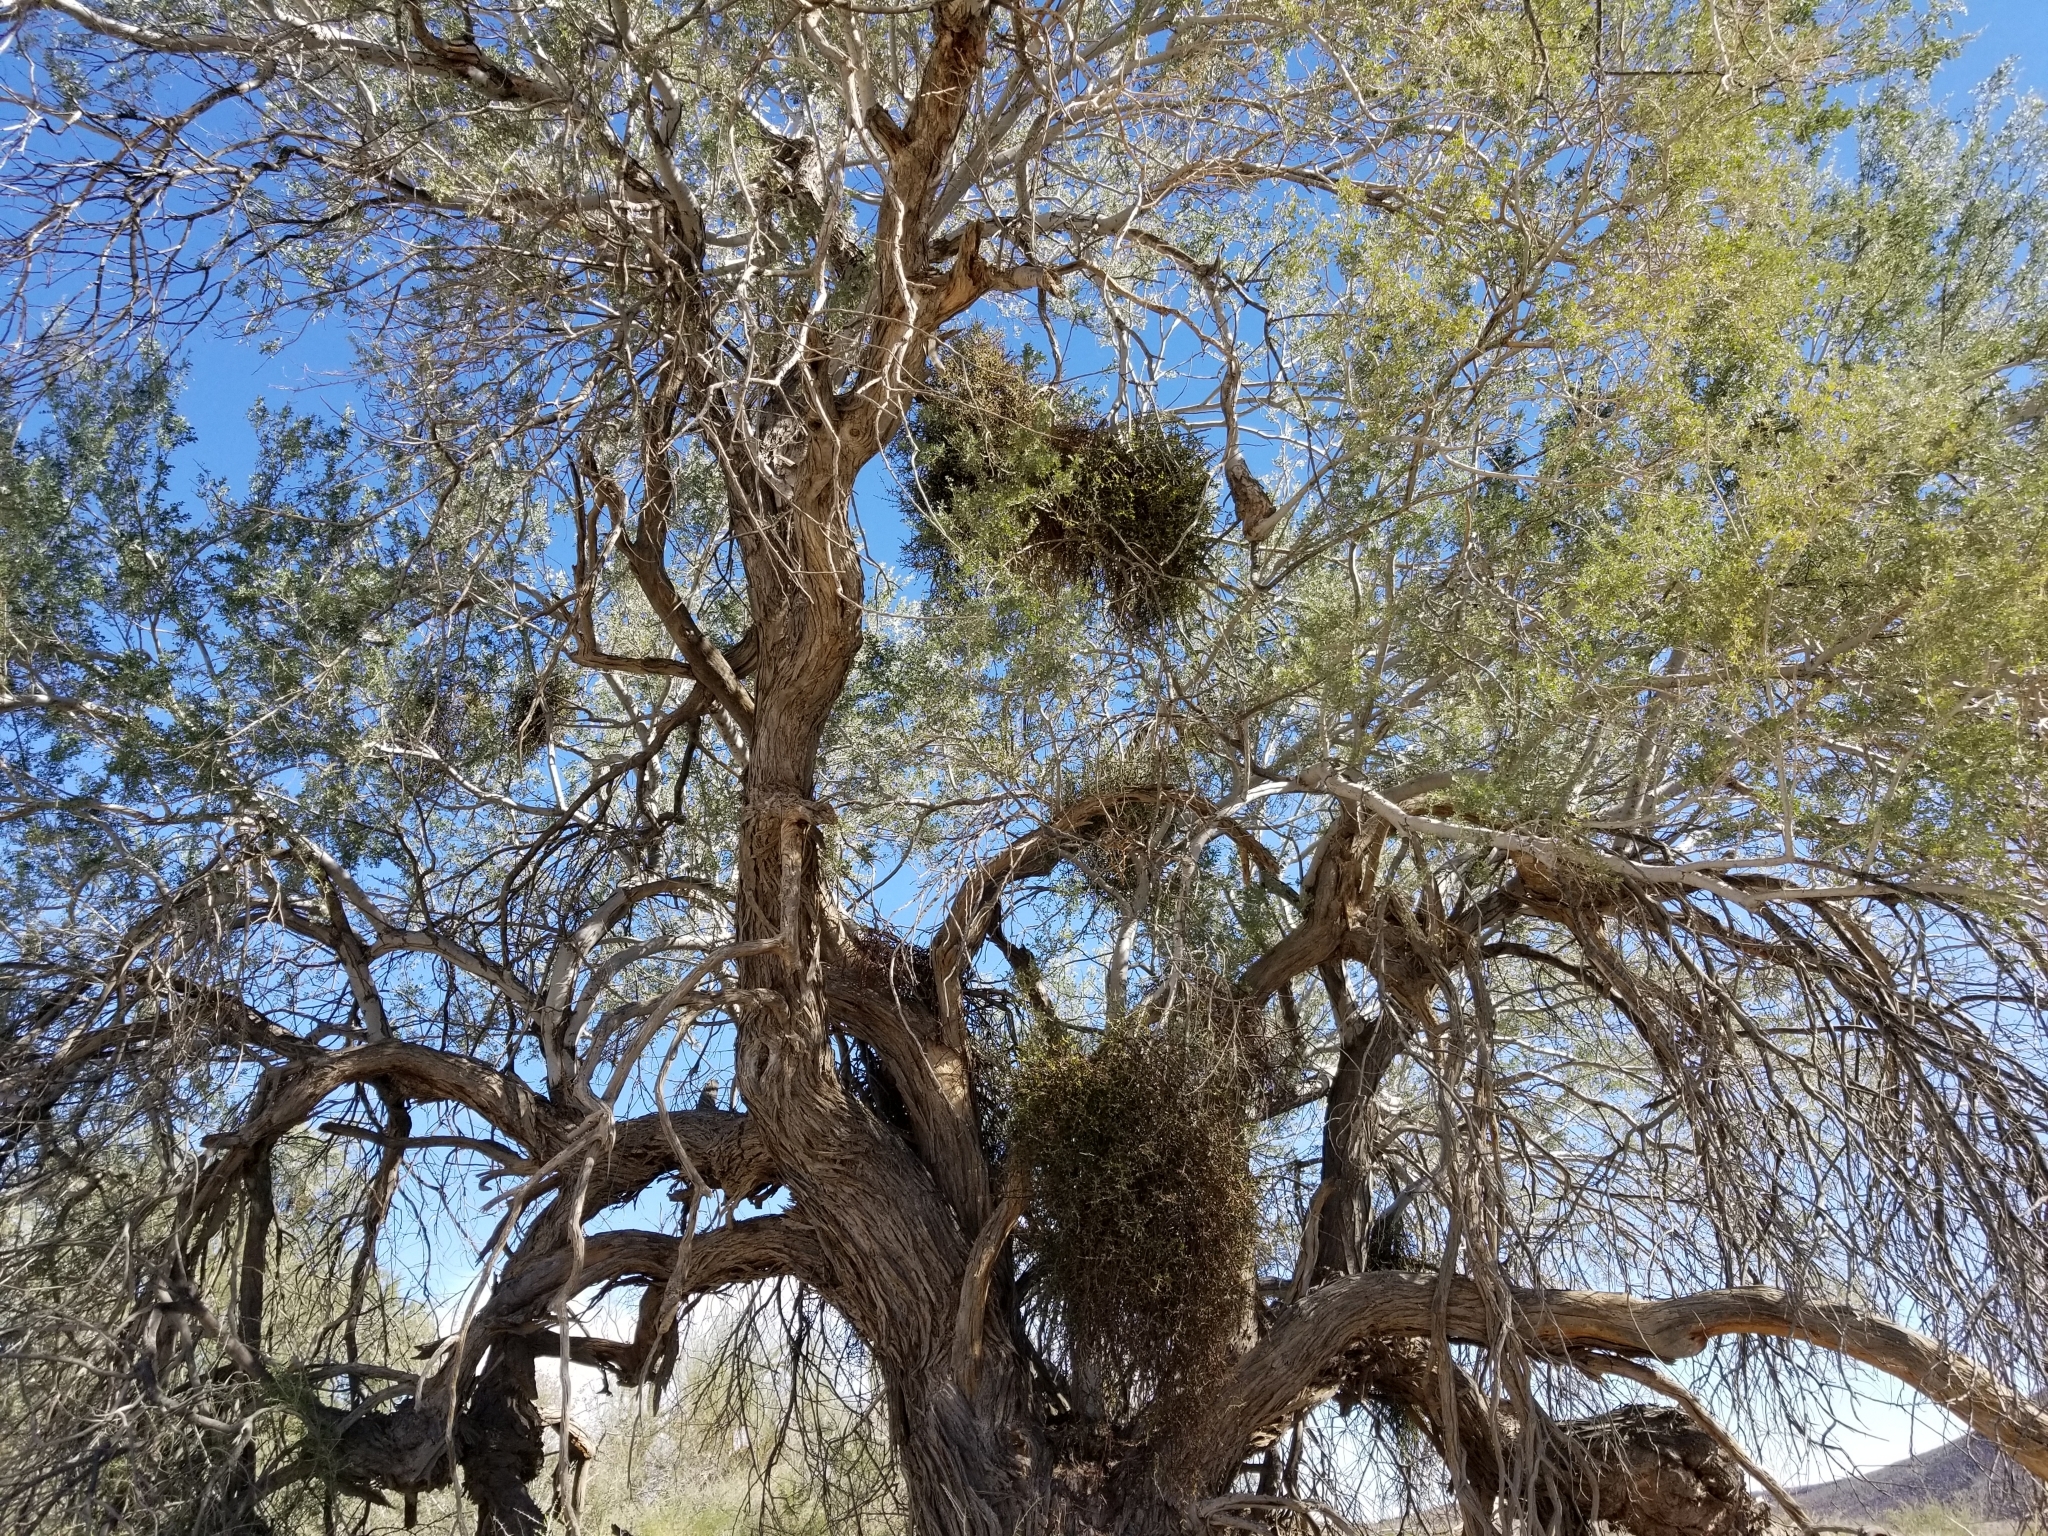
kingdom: Plantae
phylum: Tracheophyta
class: Magnoliopsida
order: Santalales
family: Viscaceae
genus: Phoradendron
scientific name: Phoradendron californicum
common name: Acacia mistletoe
